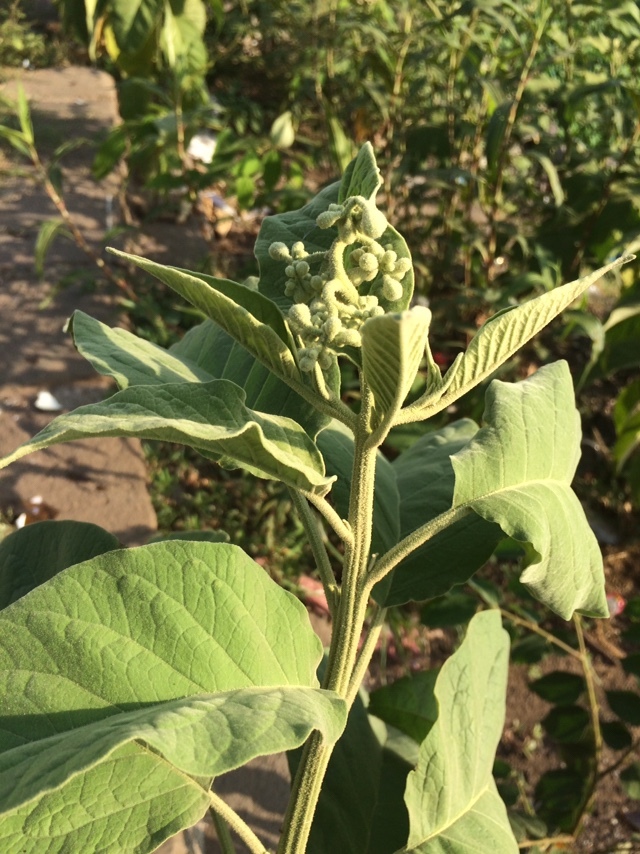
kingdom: Plantae
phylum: Tracheophyta
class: Magnoliopsida
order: Solanales
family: Solanaceae
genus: Solanum
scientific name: Solanum erianthum
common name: Tobacco-tree
